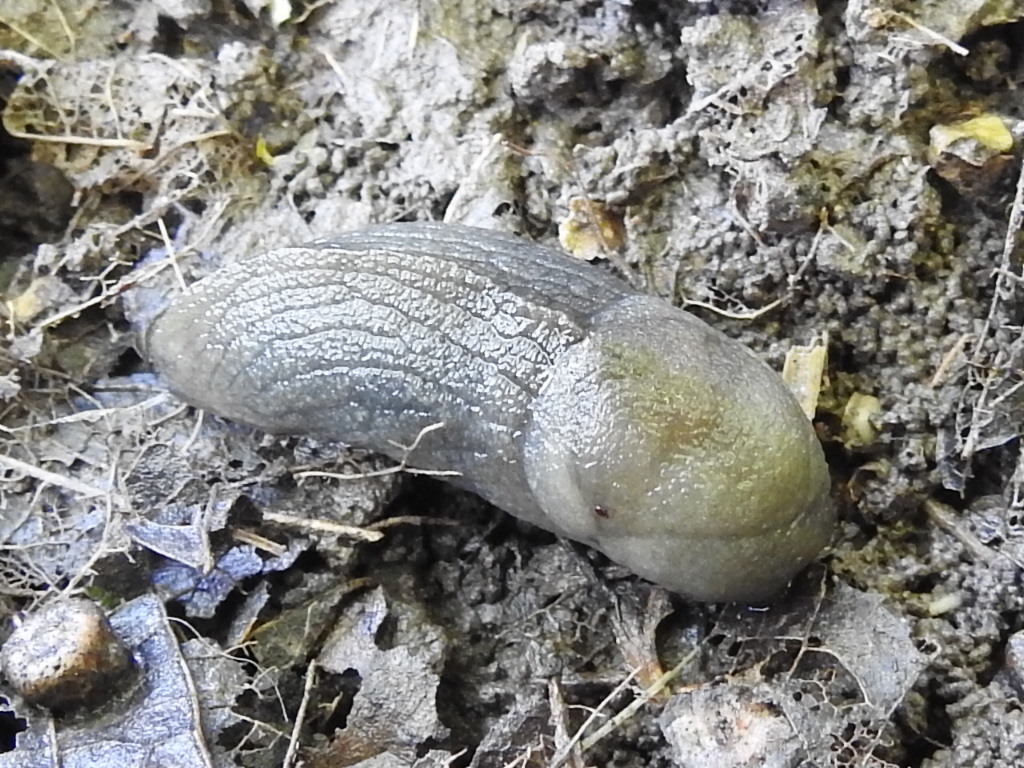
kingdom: Animalia
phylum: Mollusca
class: Gastropoda
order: Stylommatophora
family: Milacidae
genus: Milax
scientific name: Milax gagates
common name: Greenhouse slug
